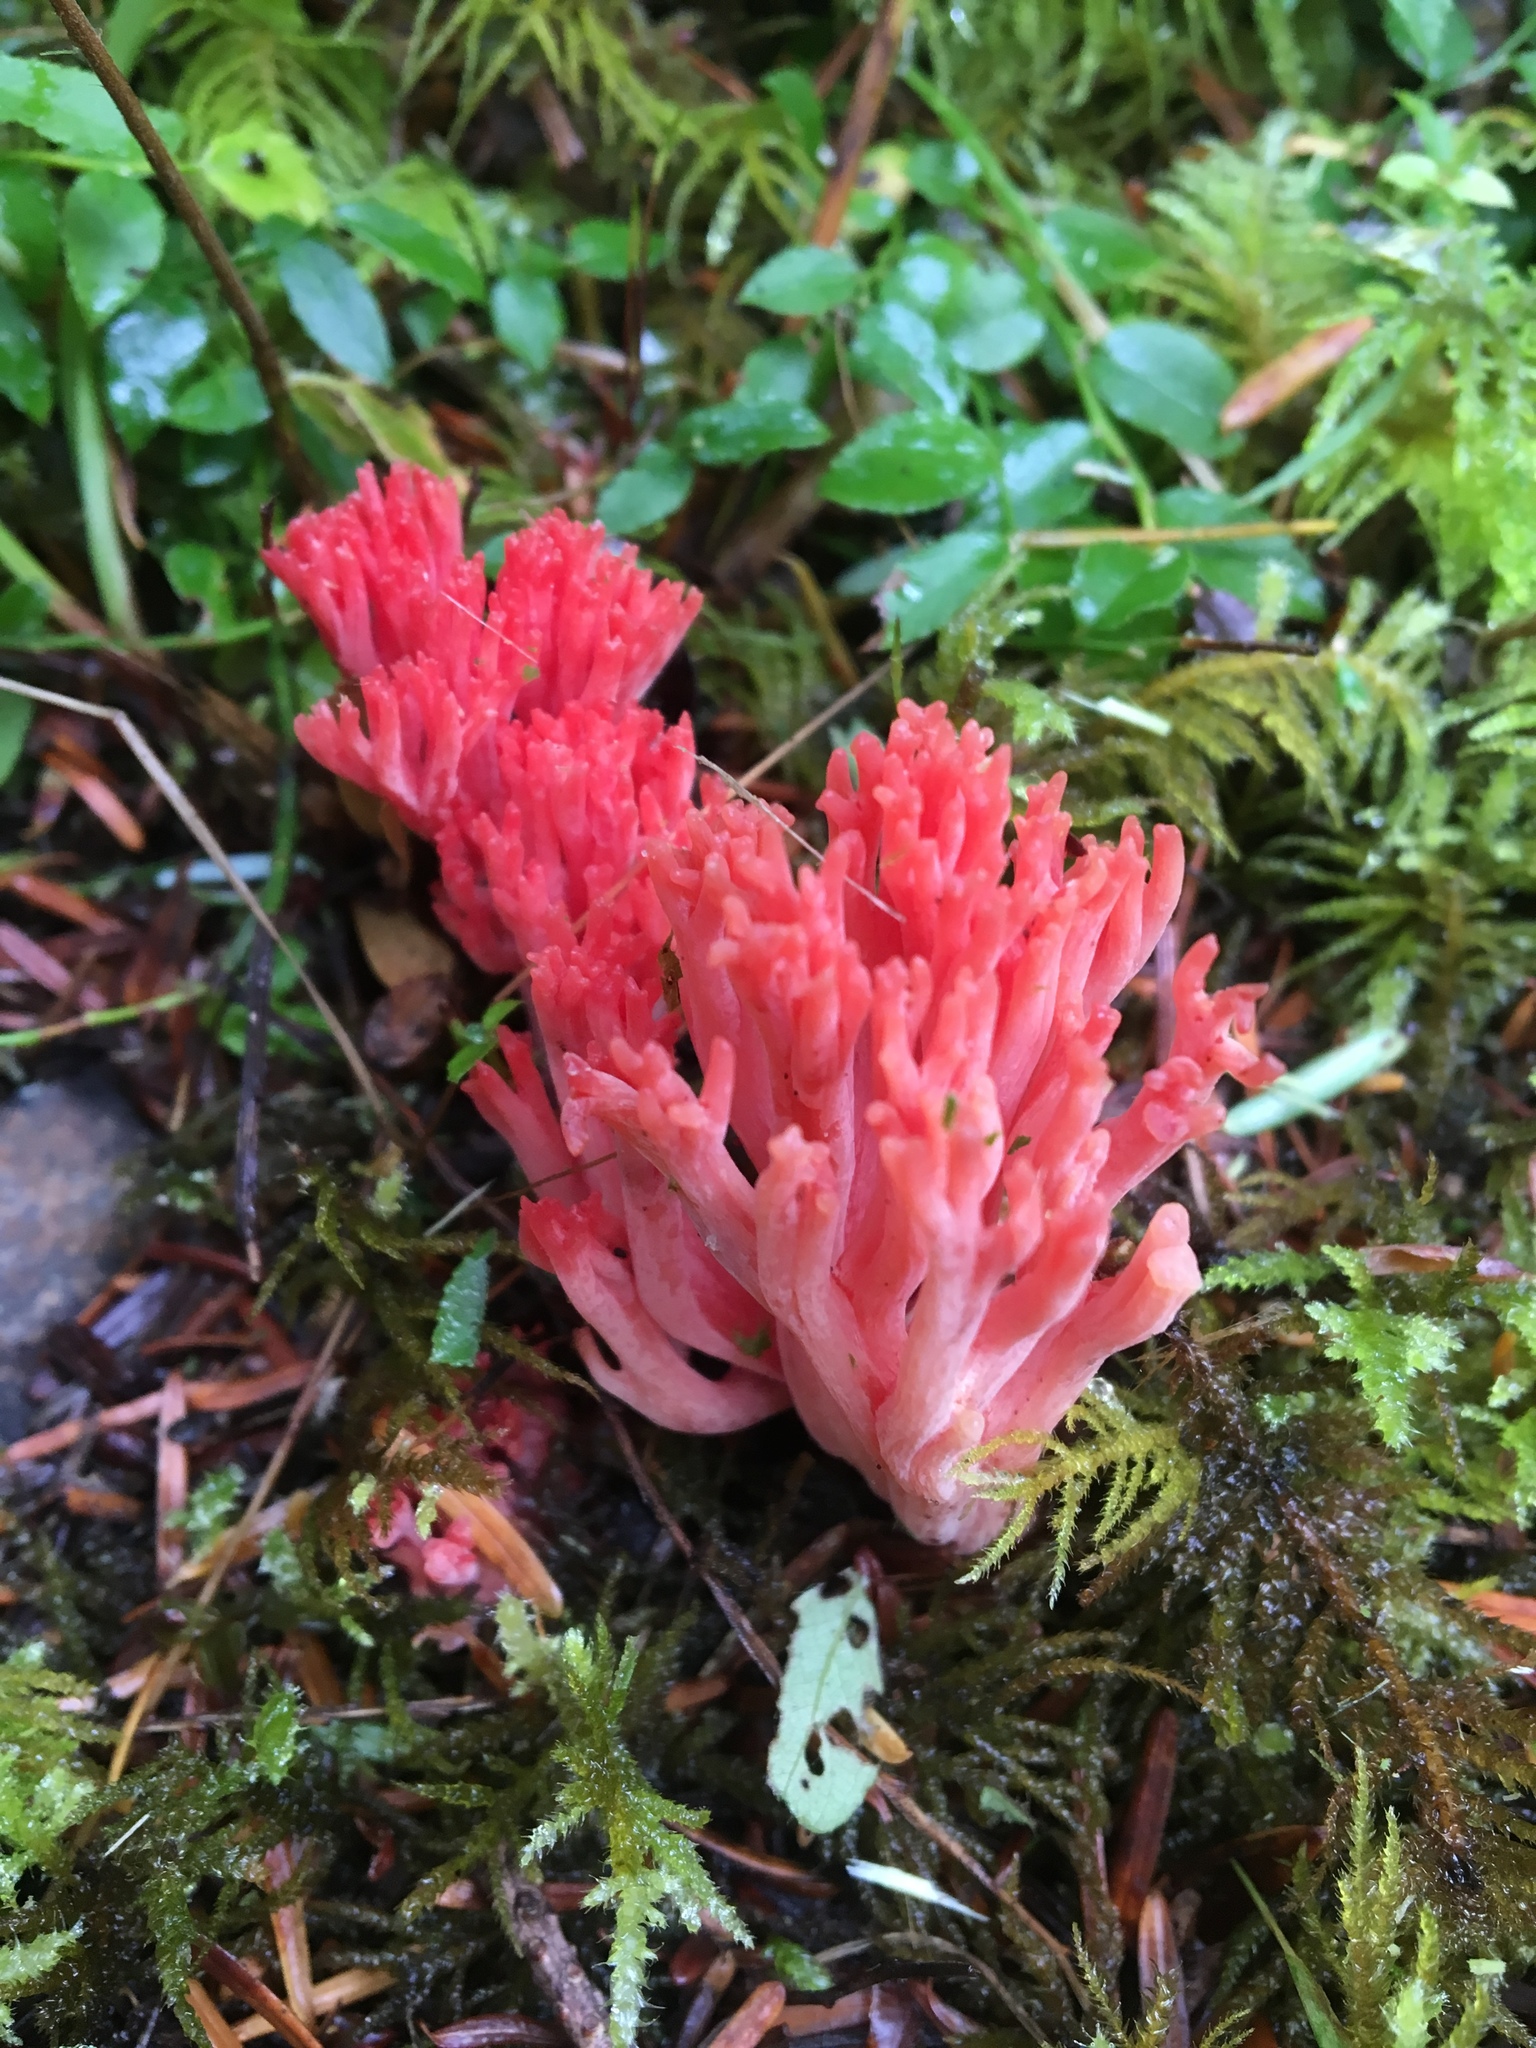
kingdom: Fungi
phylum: Basidiomycota
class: Agaricomycetes
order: Gomphales
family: Gomphaceae
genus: Ramaria
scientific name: Ramaria araiospora
